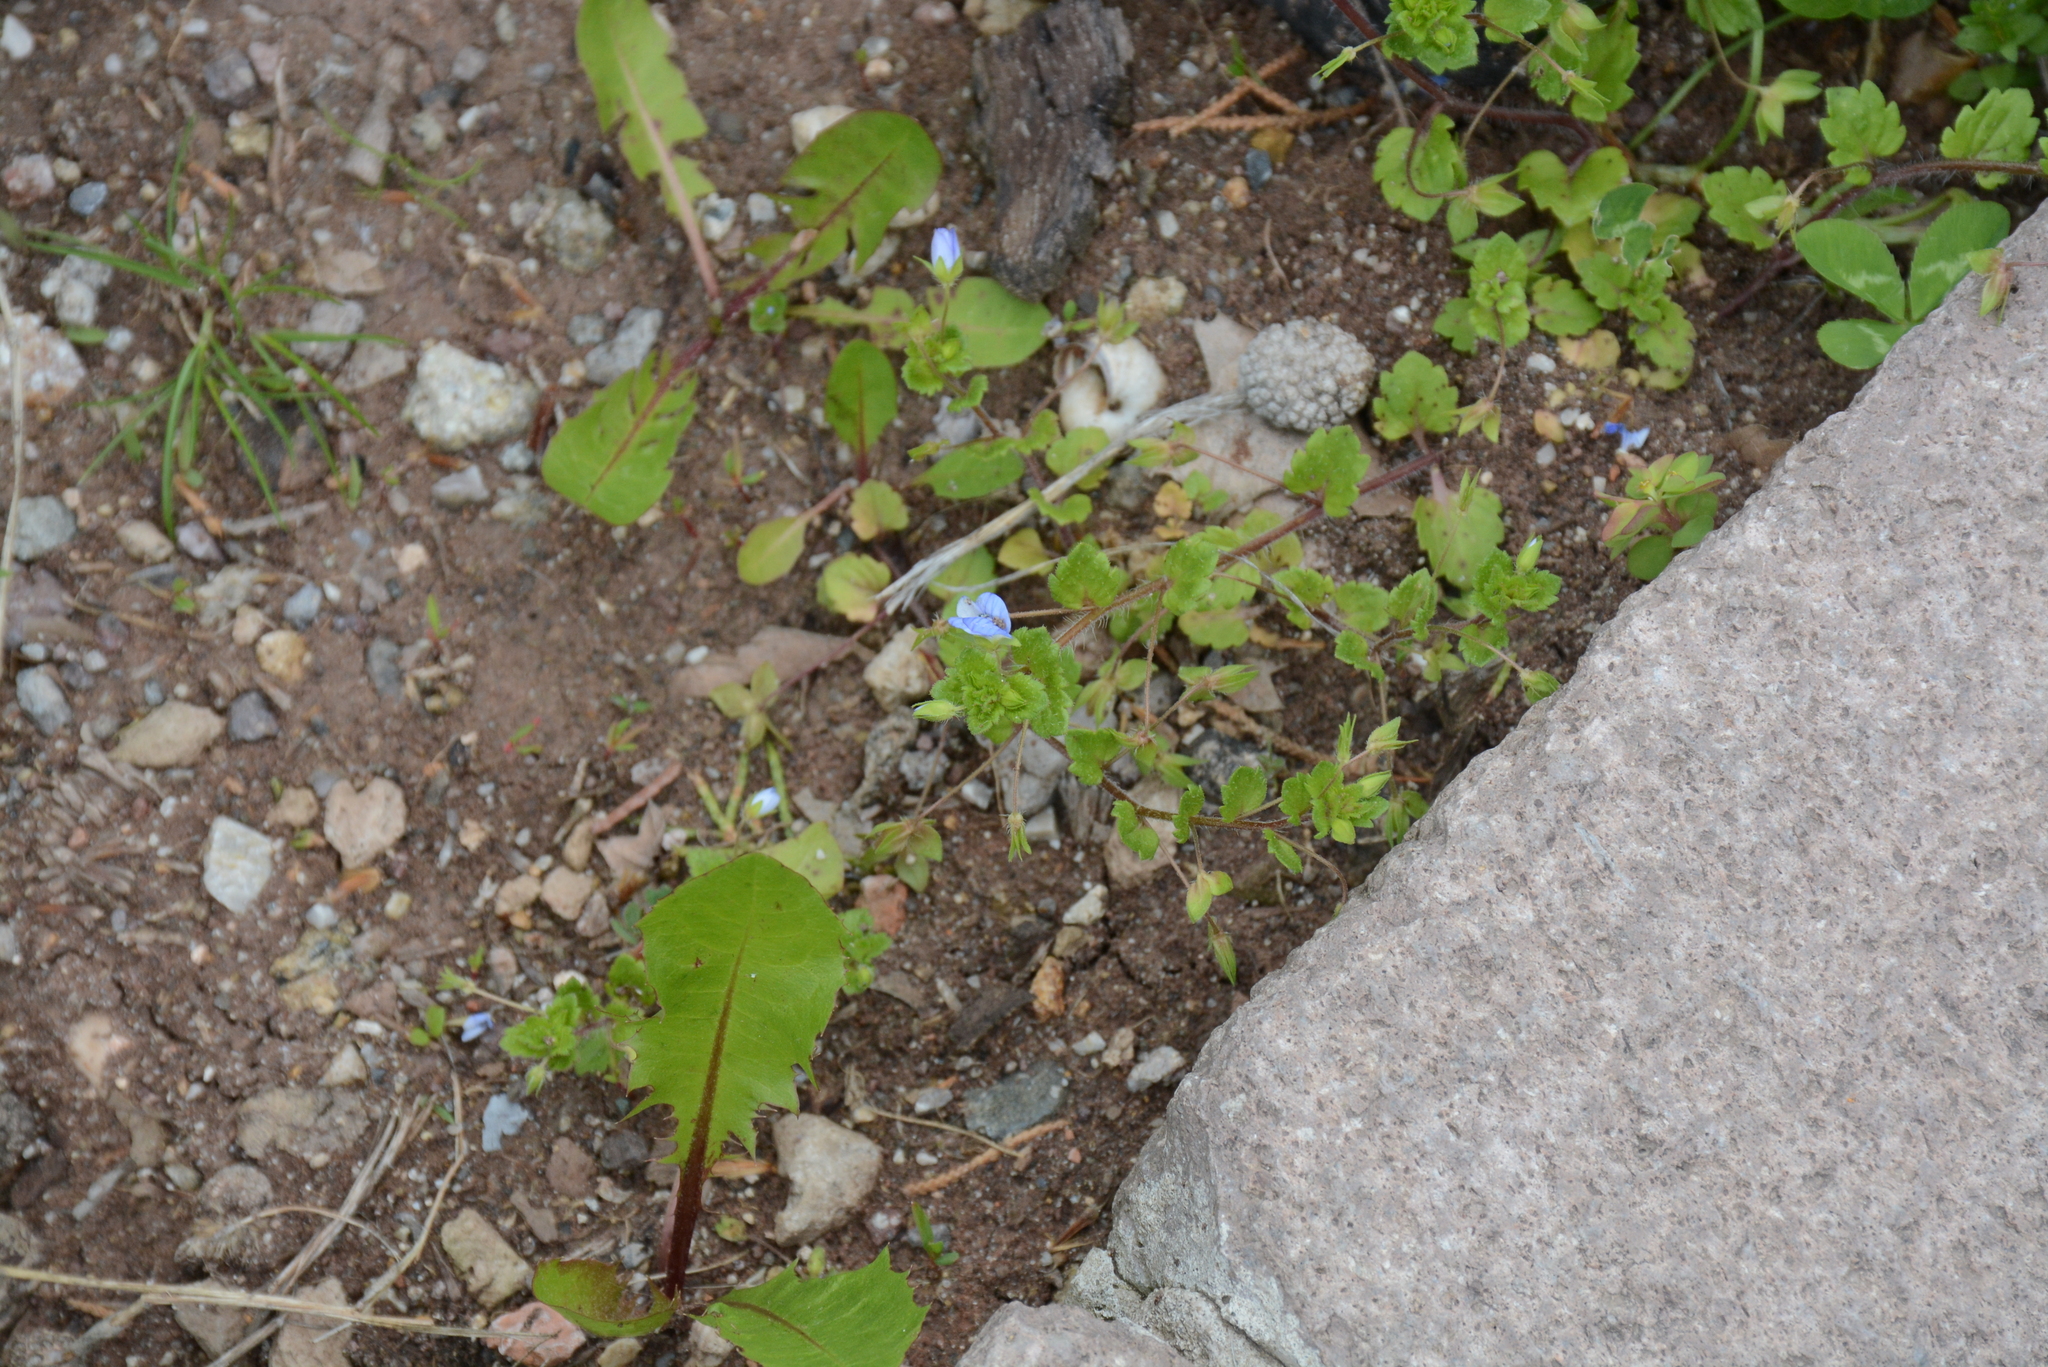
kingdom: Plantae
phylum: Tracheophyta
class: Magnoliopsida
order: Lamiales
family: Plantaginaceae
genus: Veronica
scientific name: Veronica persica
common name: Common field-speedwell
